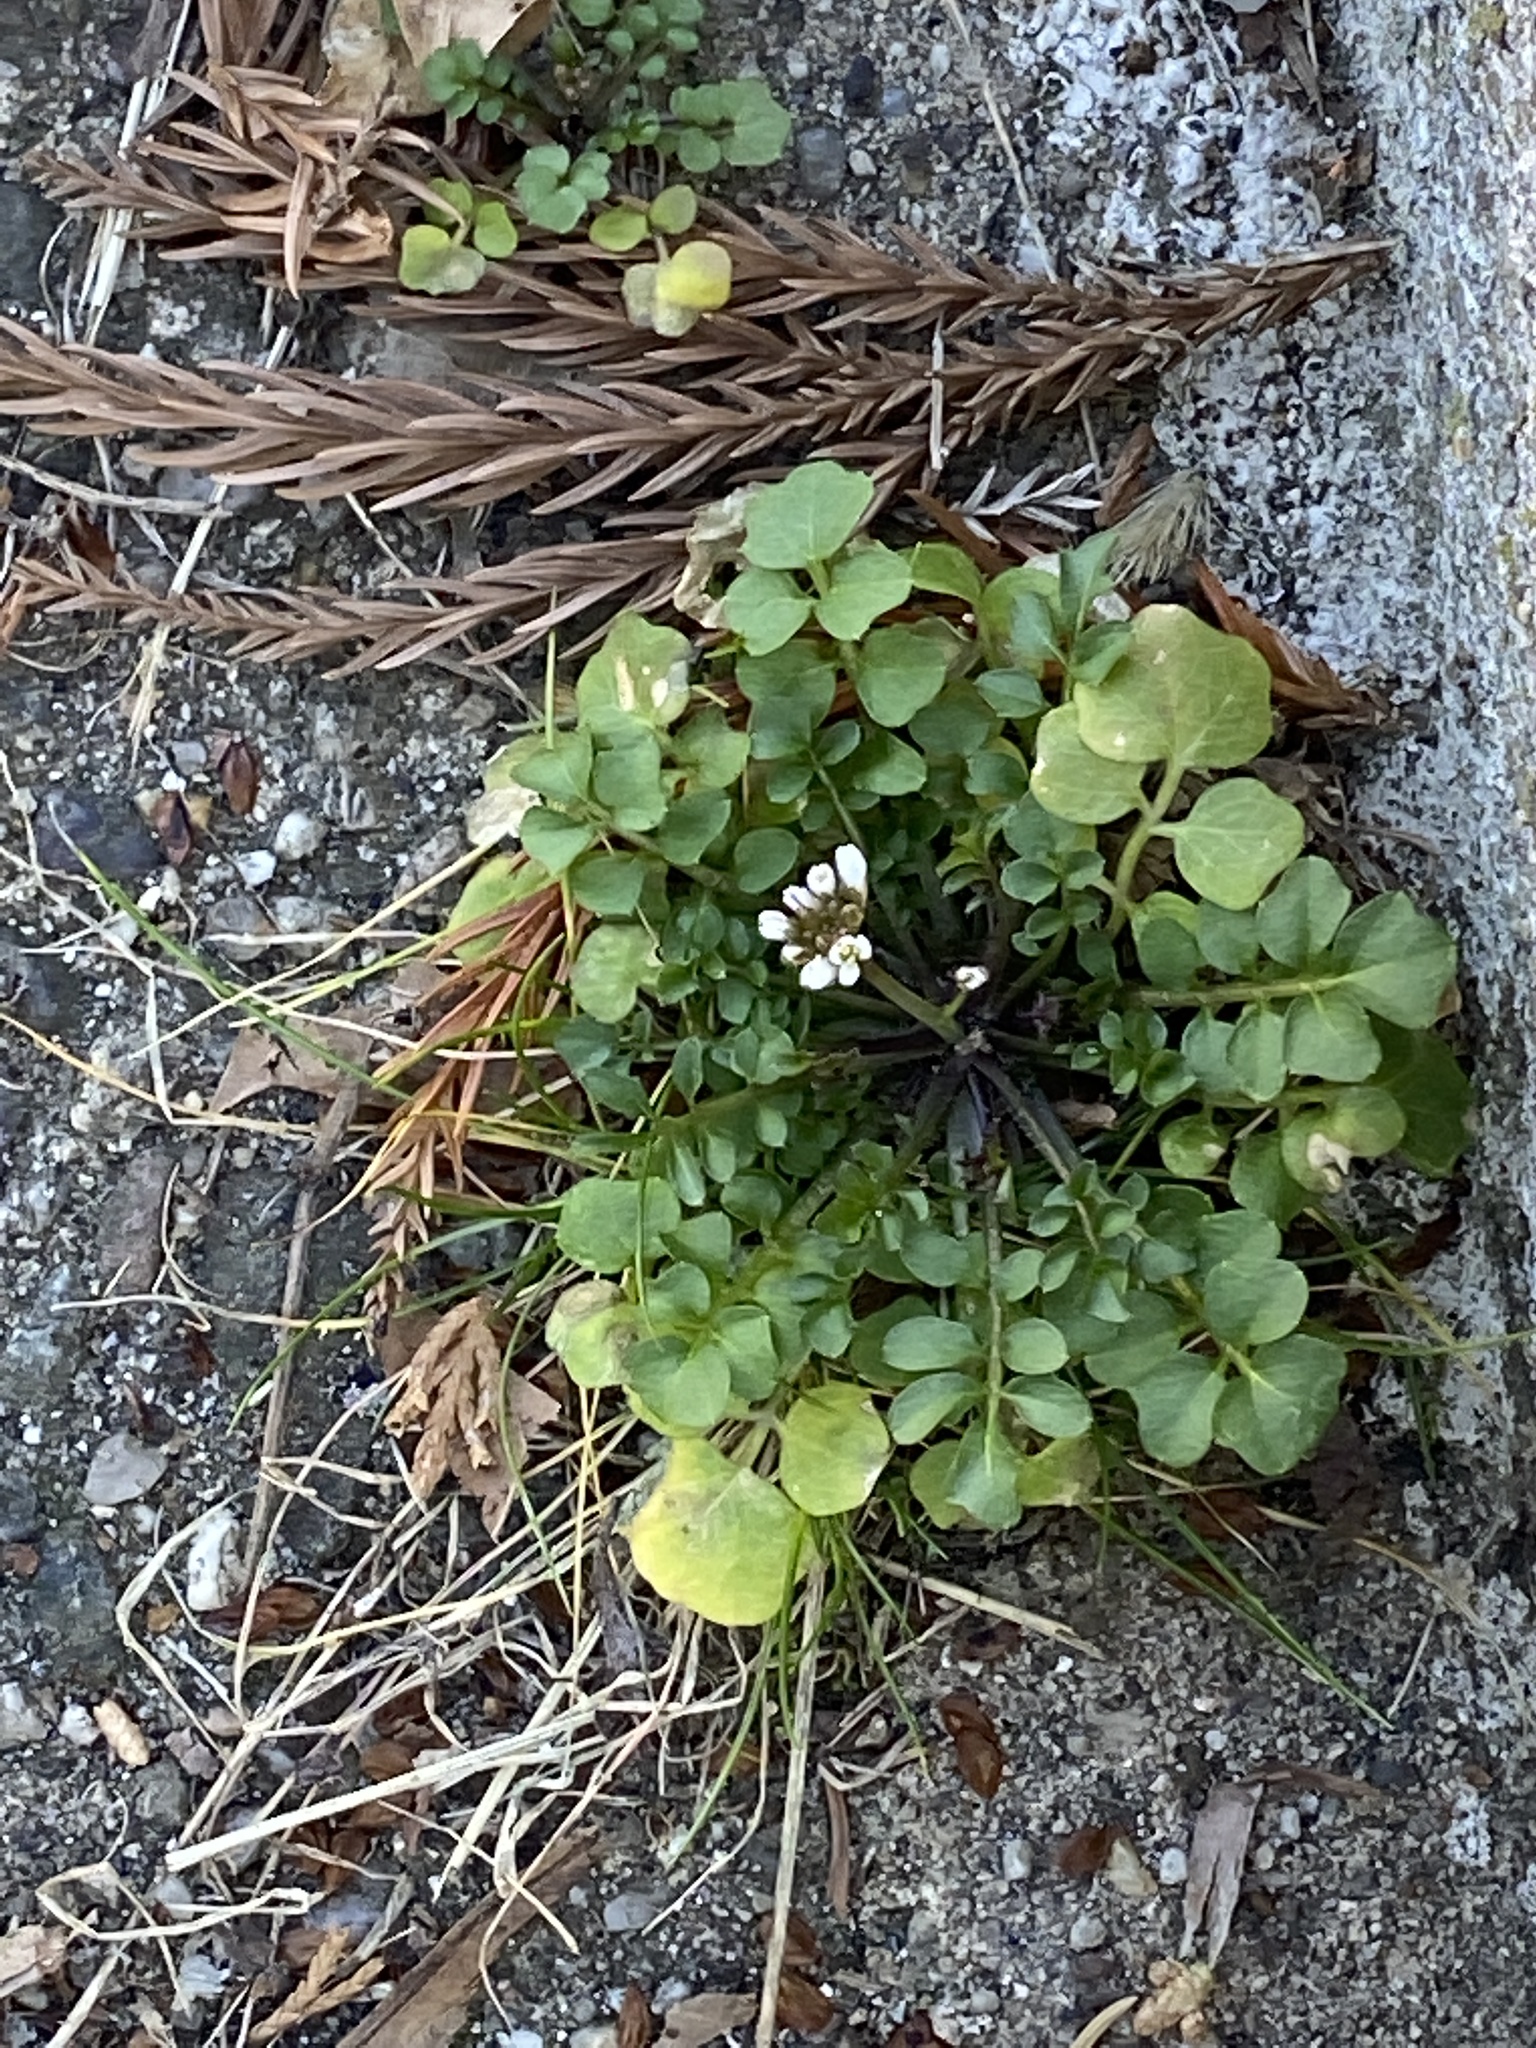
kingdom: Plantae
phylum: Tracheophyta
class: Magnoliopsida
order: Brassicales
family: Brassicaceae
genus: Cardamine
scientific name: Cardamine hirsuta
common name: Hairy bittercress
